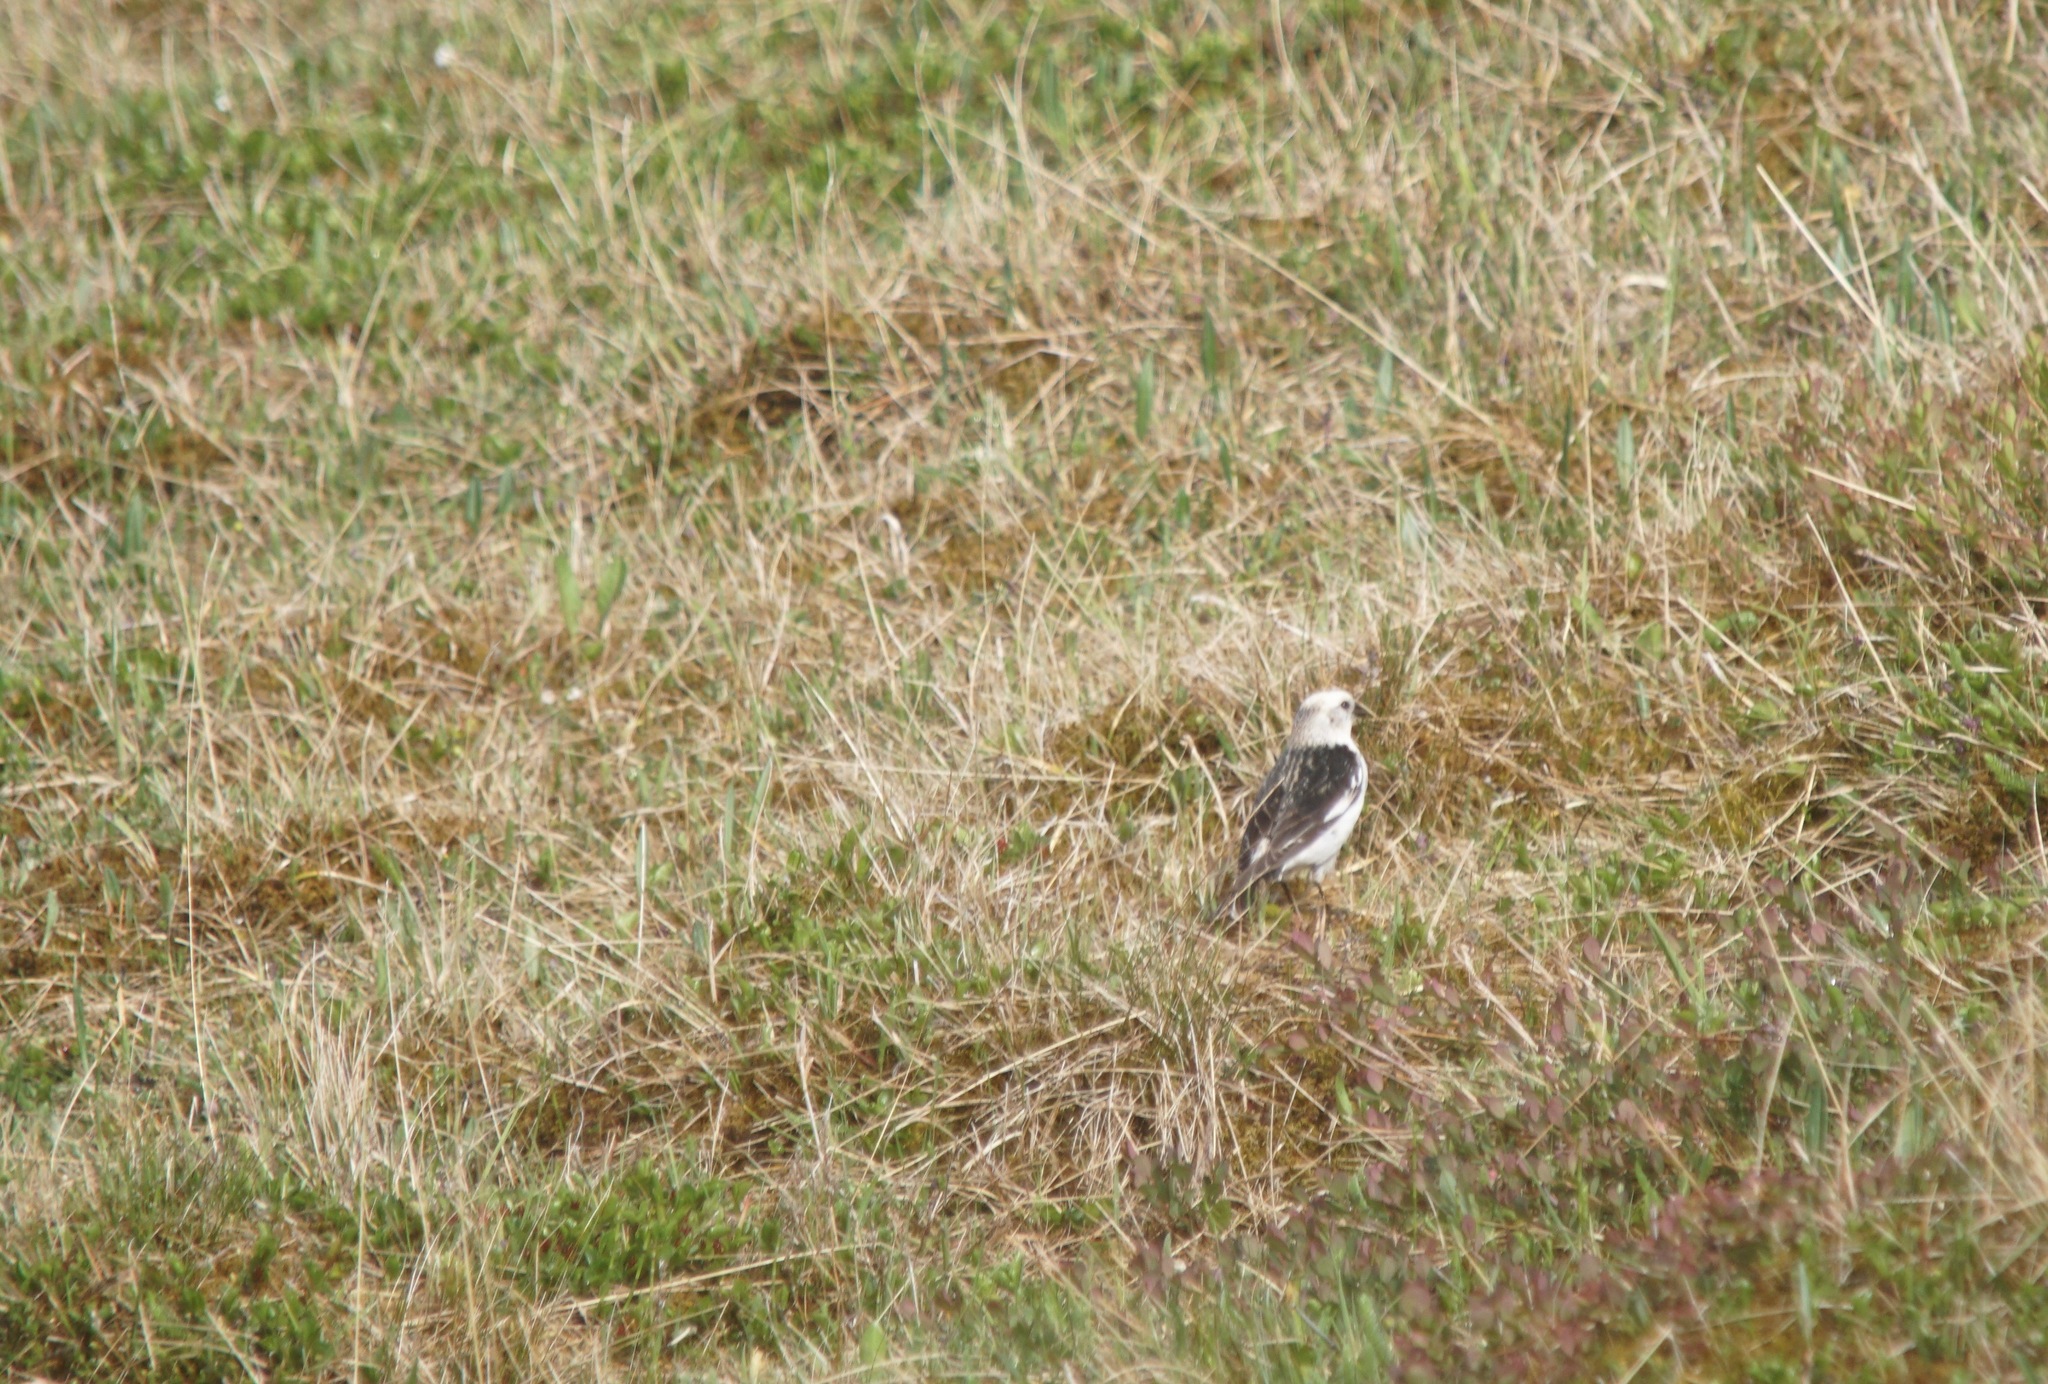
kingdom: Animalia
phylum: Chordata
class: Aves
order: Passeriformes
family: Calcariidae
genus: Plectrophenax
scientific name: Plectrophenax nivalis
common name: Snow bunting
